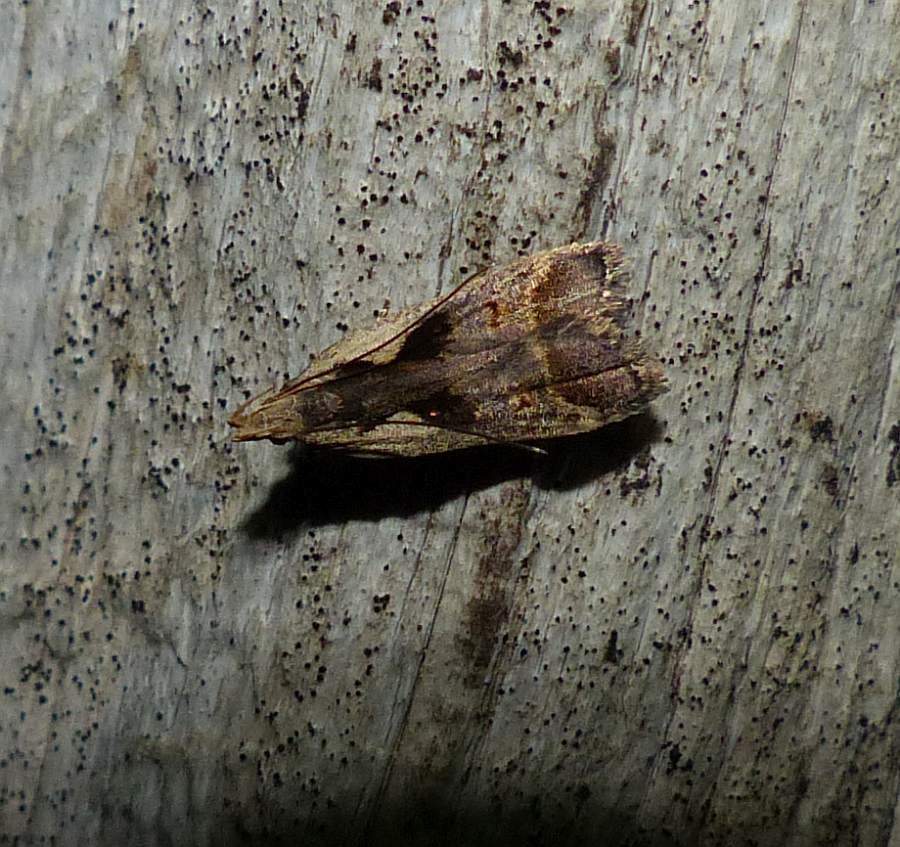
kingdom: Animalia
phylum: Arthropoda
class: Insecta
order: Lepidoptera
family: Gelechiidae
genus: Dichomeris
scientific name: Dichomeris bilobella
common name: Bilobed dichomeris moth
